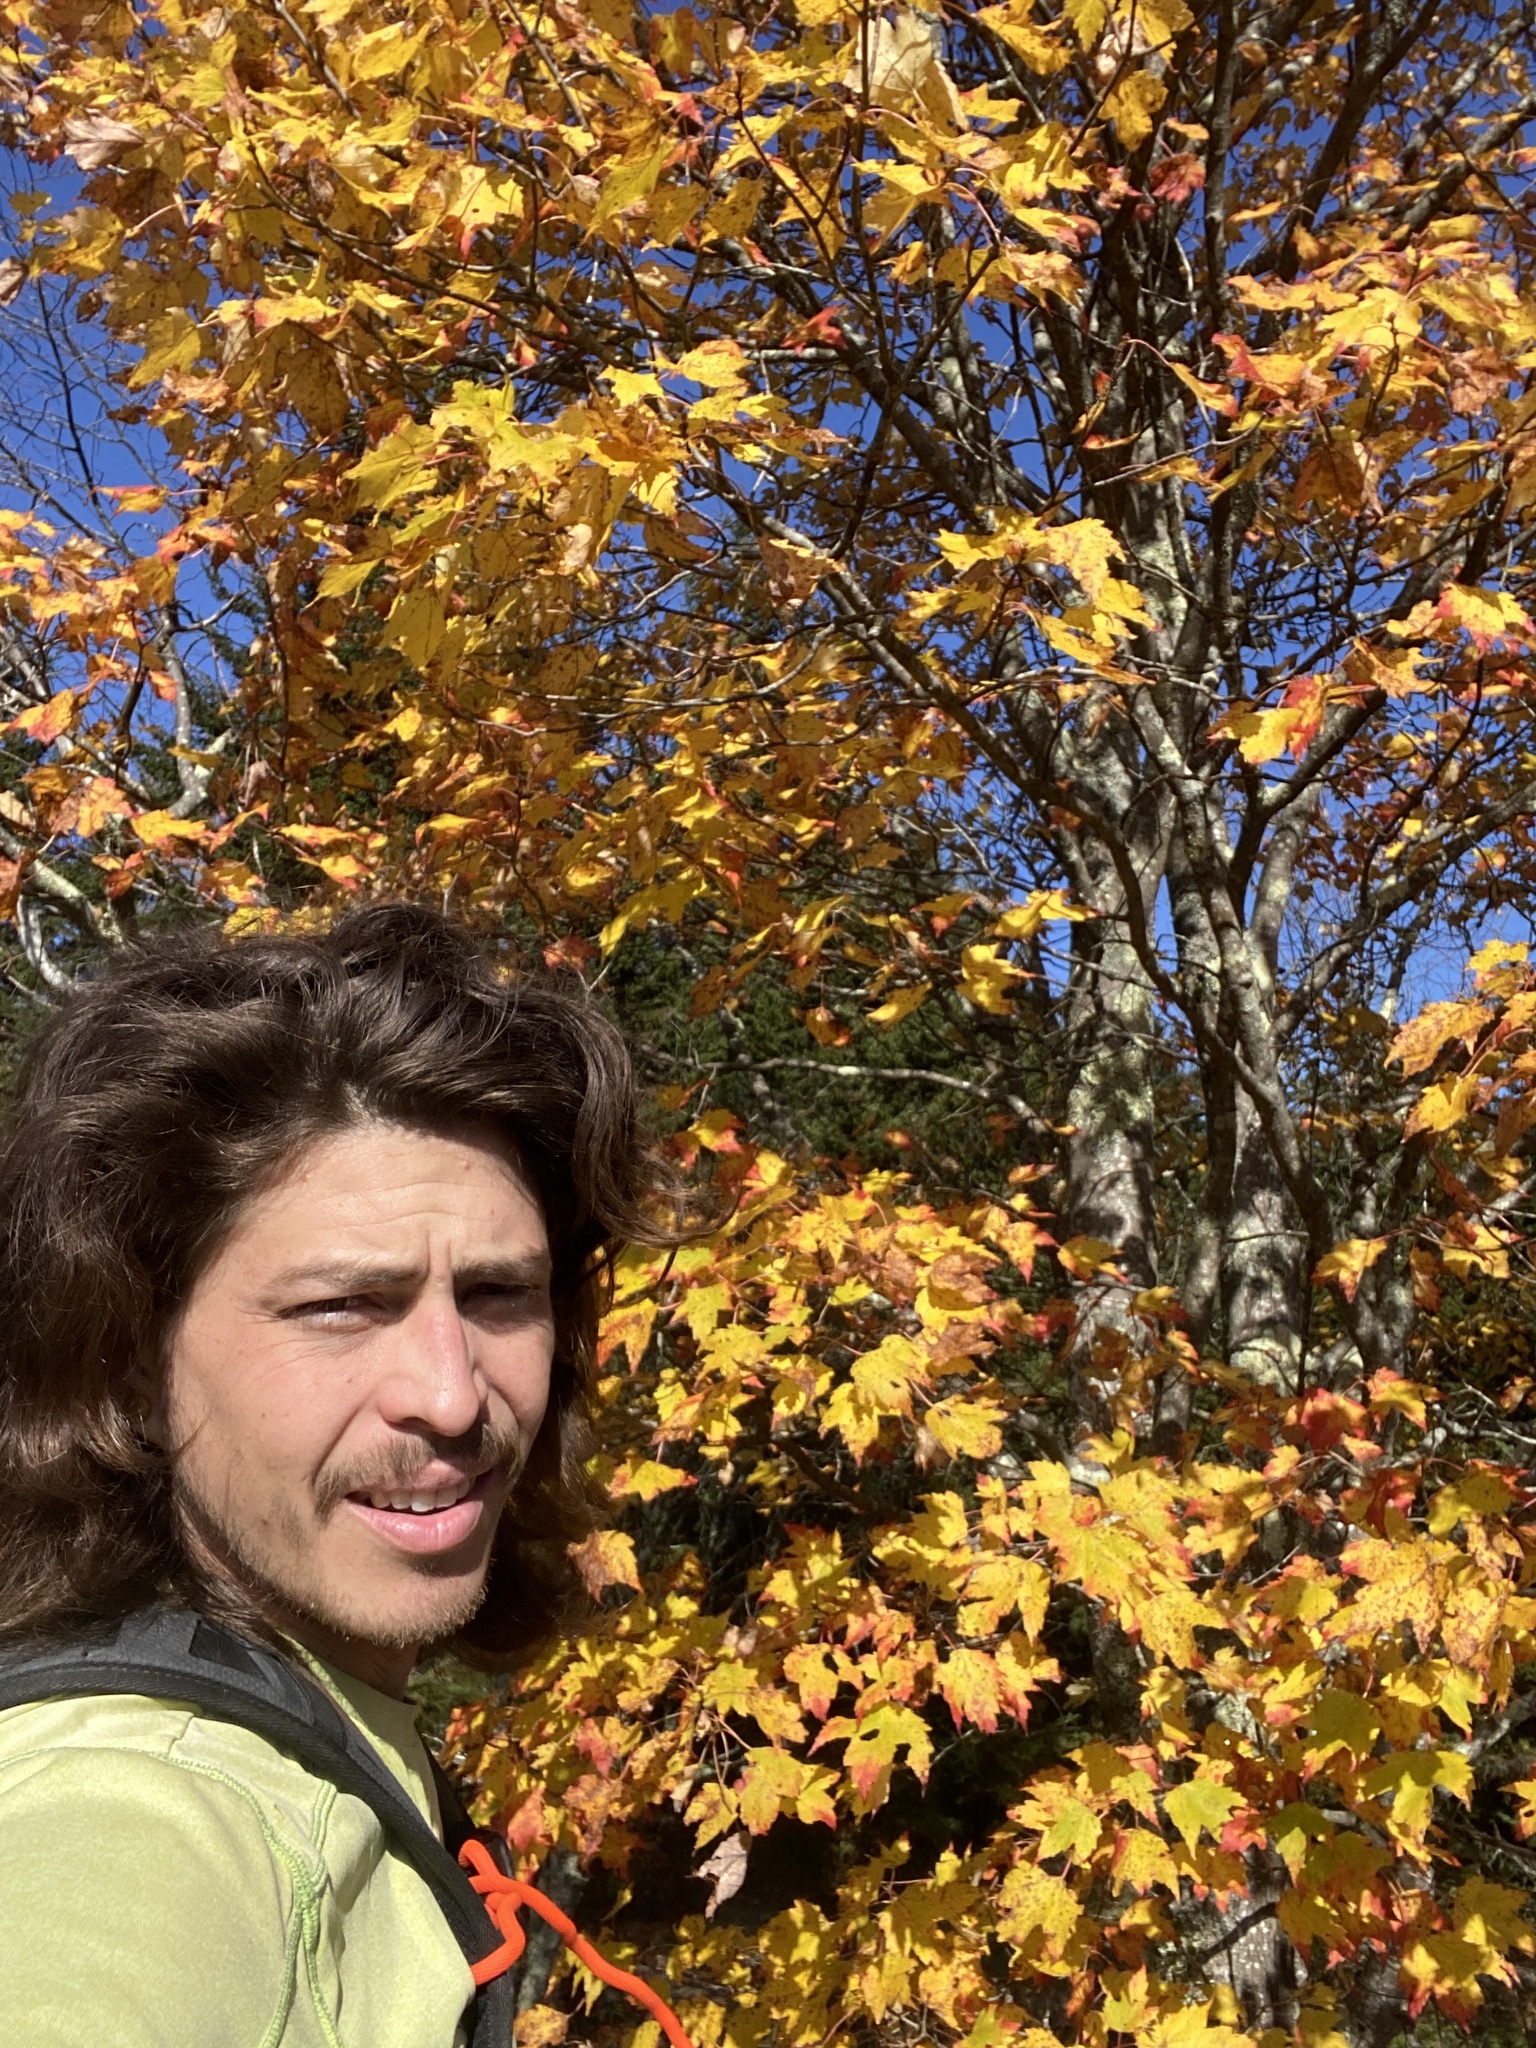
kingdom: Plantae
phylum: Tracheophyta
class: Magnoliopsida
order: Sapindales
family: Sapindaceae
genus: Acer
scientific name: Acer rubrum
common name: Red maple
